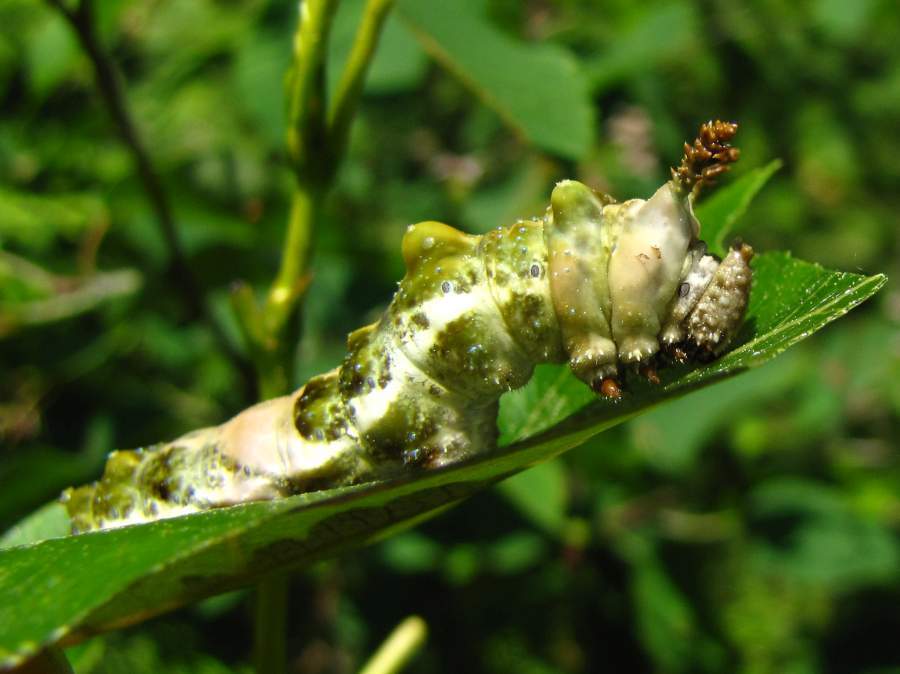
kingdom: Animalia
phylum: Arthropoda
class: Insecta
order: Lepidoptera
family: Nymphalidae
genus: Limenitis
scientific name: Limenitis
